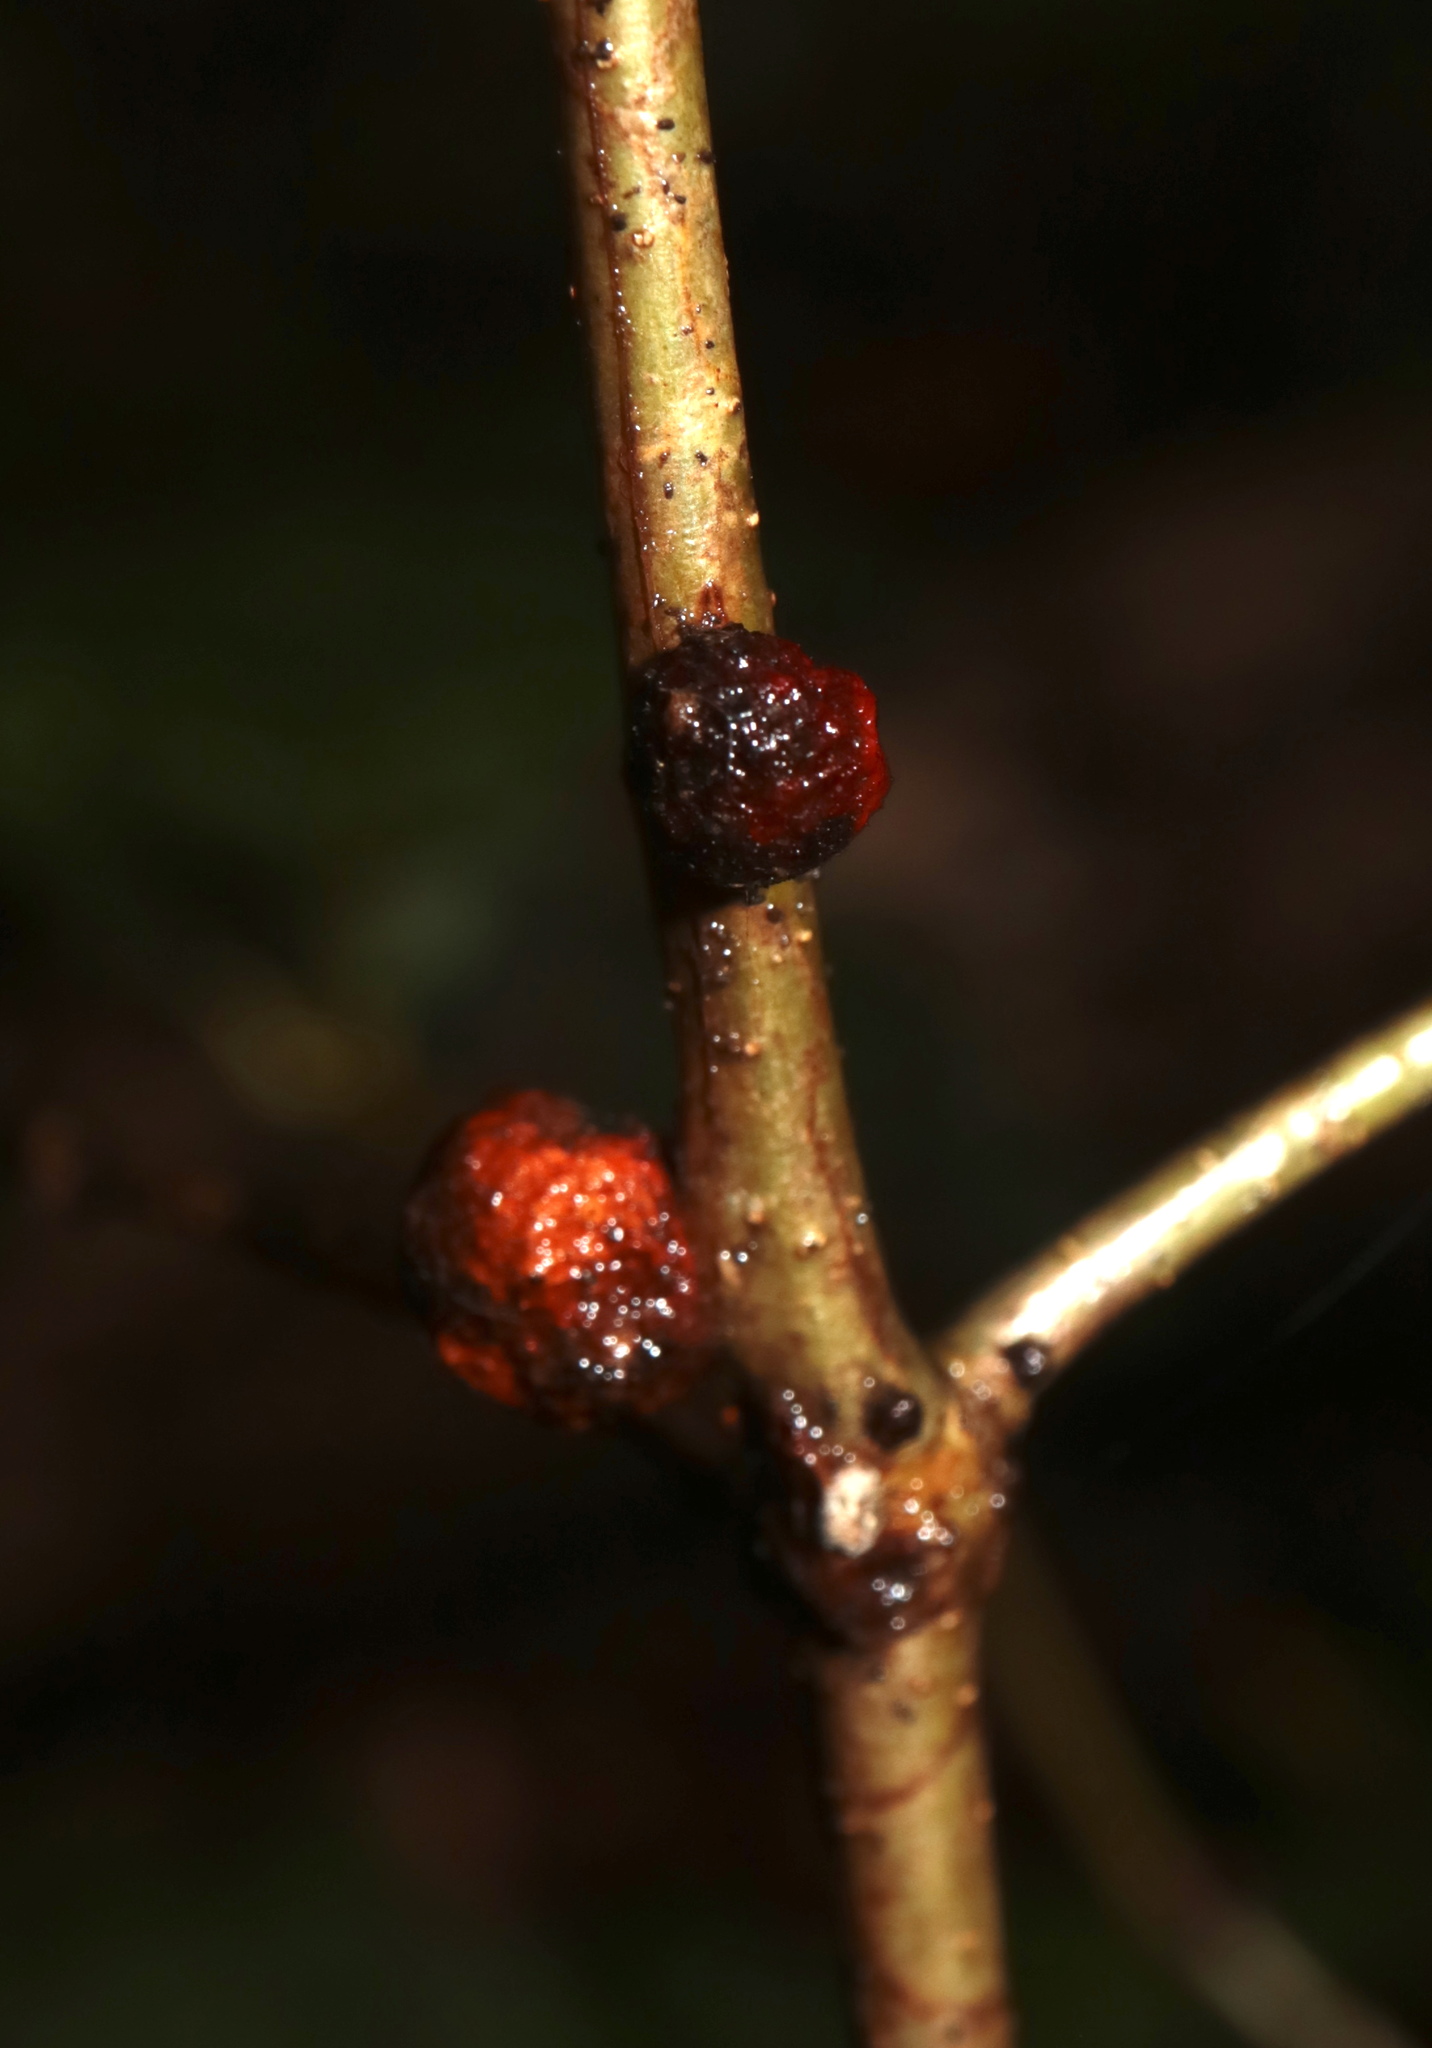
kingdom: Animalia
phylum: Arthropoda
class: Insecta
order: Hymenoptera
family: Cynipidae
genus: Disholcaspis
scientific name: Disholcaspis
